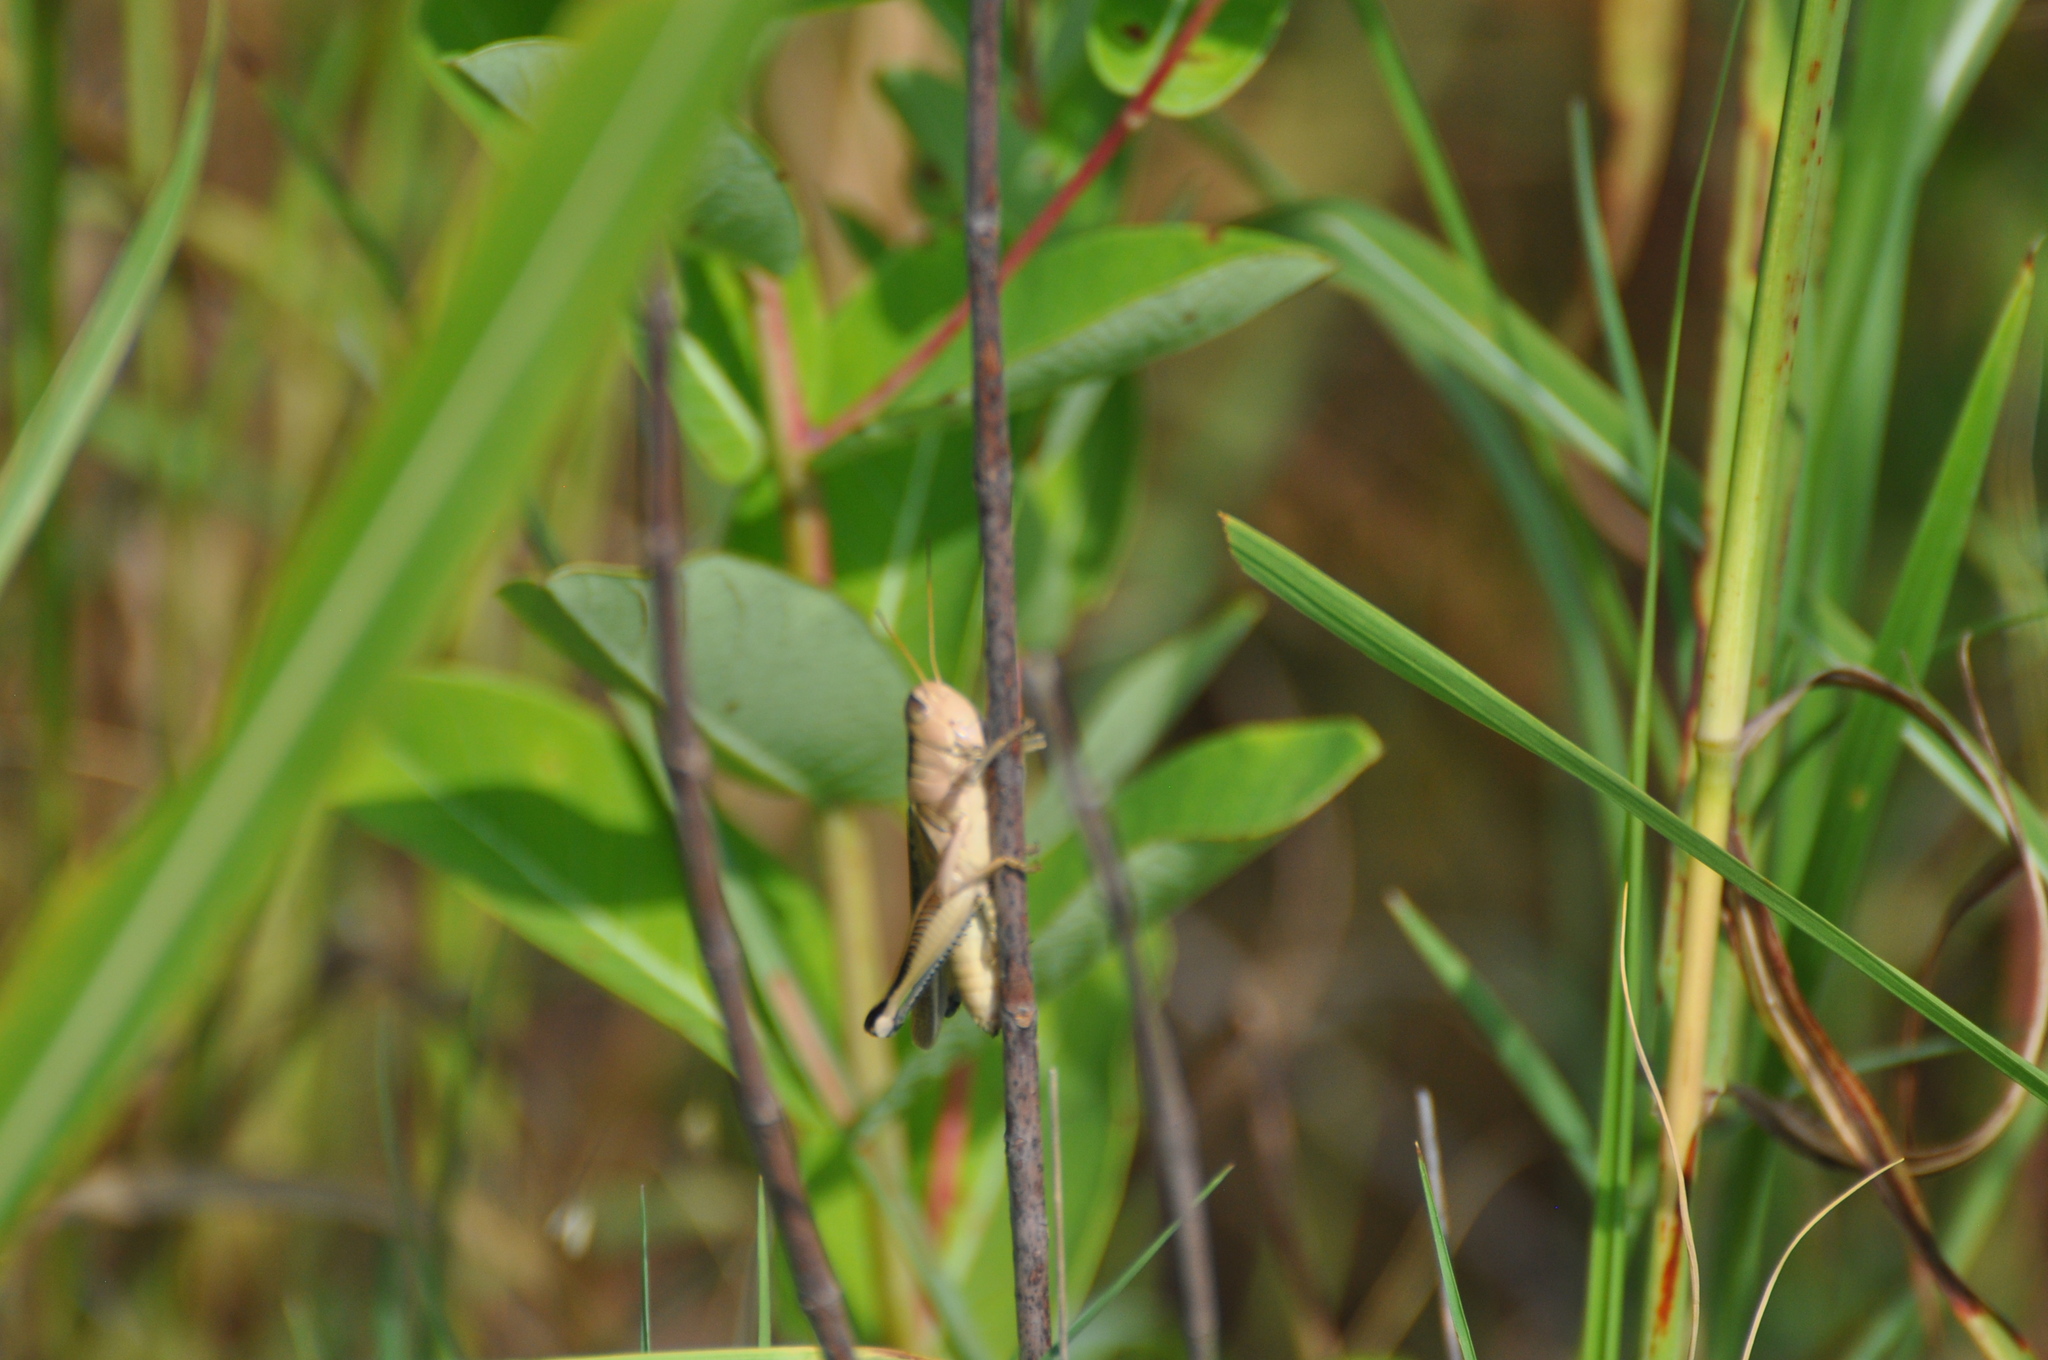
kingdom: Animalia
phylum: Arthropoda
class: Insecta
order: Orthoptera
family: Acrididae
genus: Melanoplus
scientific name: Melanoplus bivittatus
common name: Two-striped grasshopper
